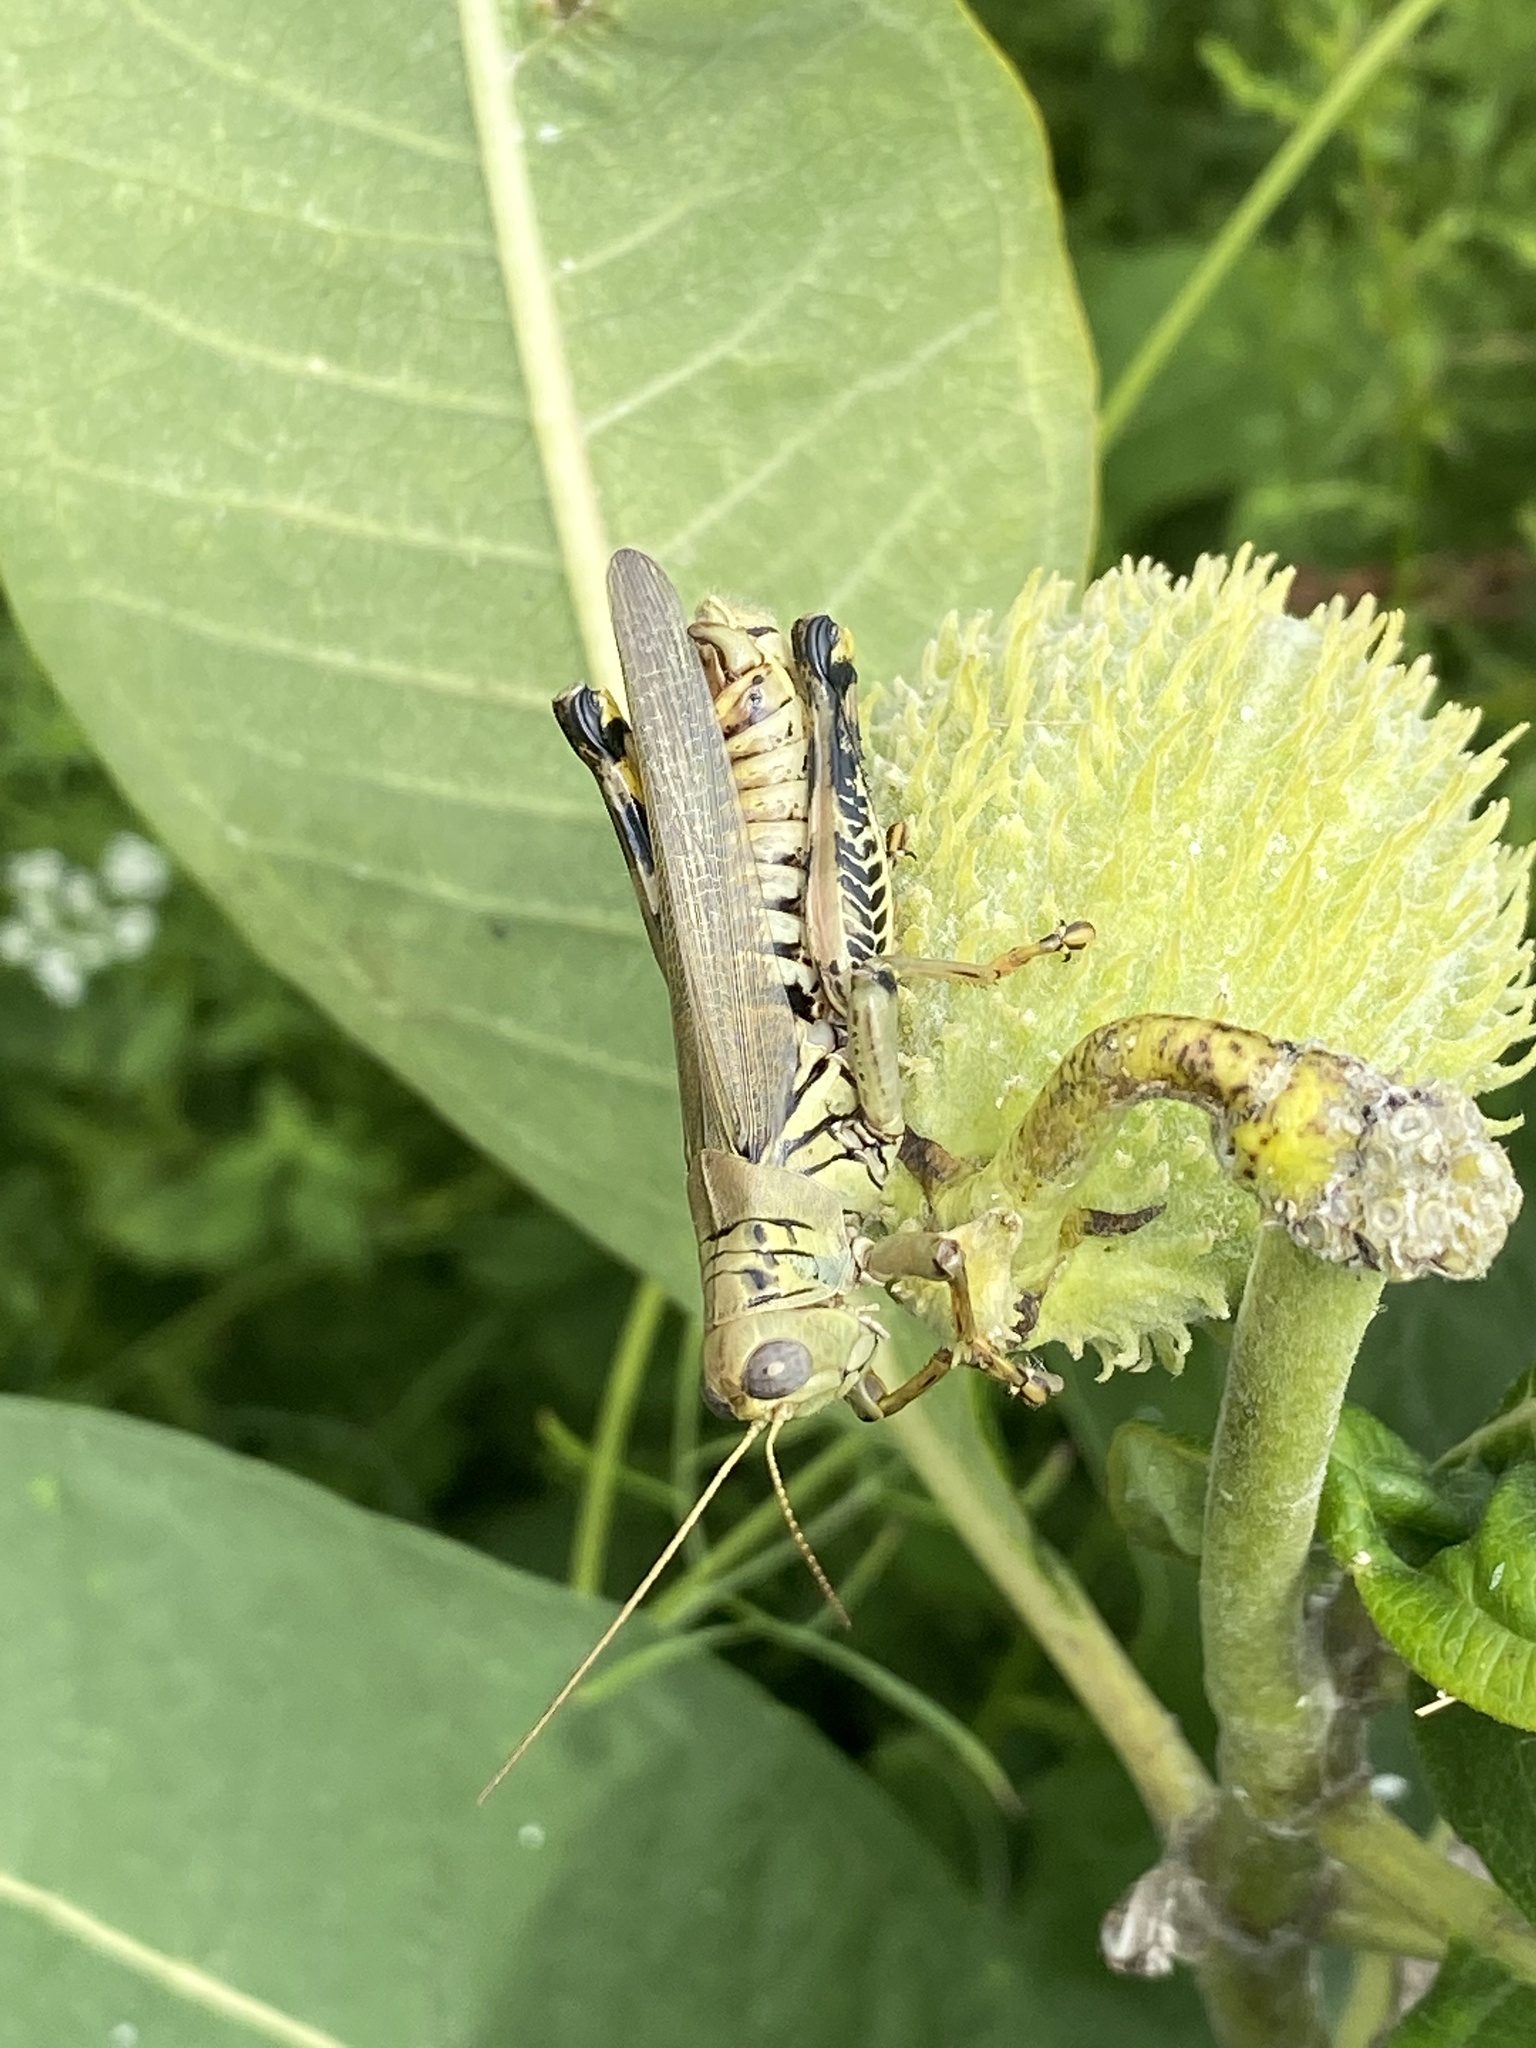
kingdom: Animalia
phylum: Arthropoda
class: Insecta
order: Orthoptera
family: Acrididae
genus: Melanoplus
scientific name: Melanoplus differentialis
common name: Differential grasshopper
